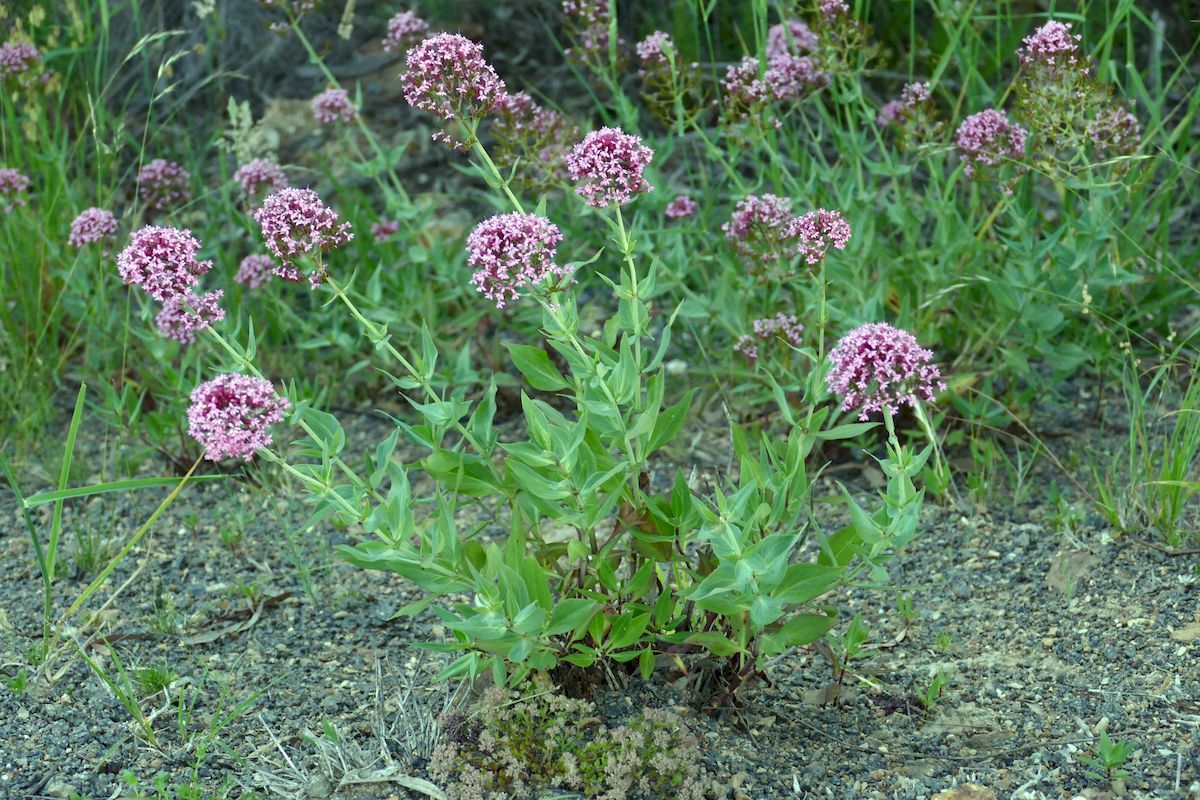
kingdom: Plantae
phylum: Tracheophyta
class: Magnoliopsida
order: Dipsacales
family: Caprifoliaceae
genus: Centranthus
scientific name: Centranthus ruber
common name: Red valerian
